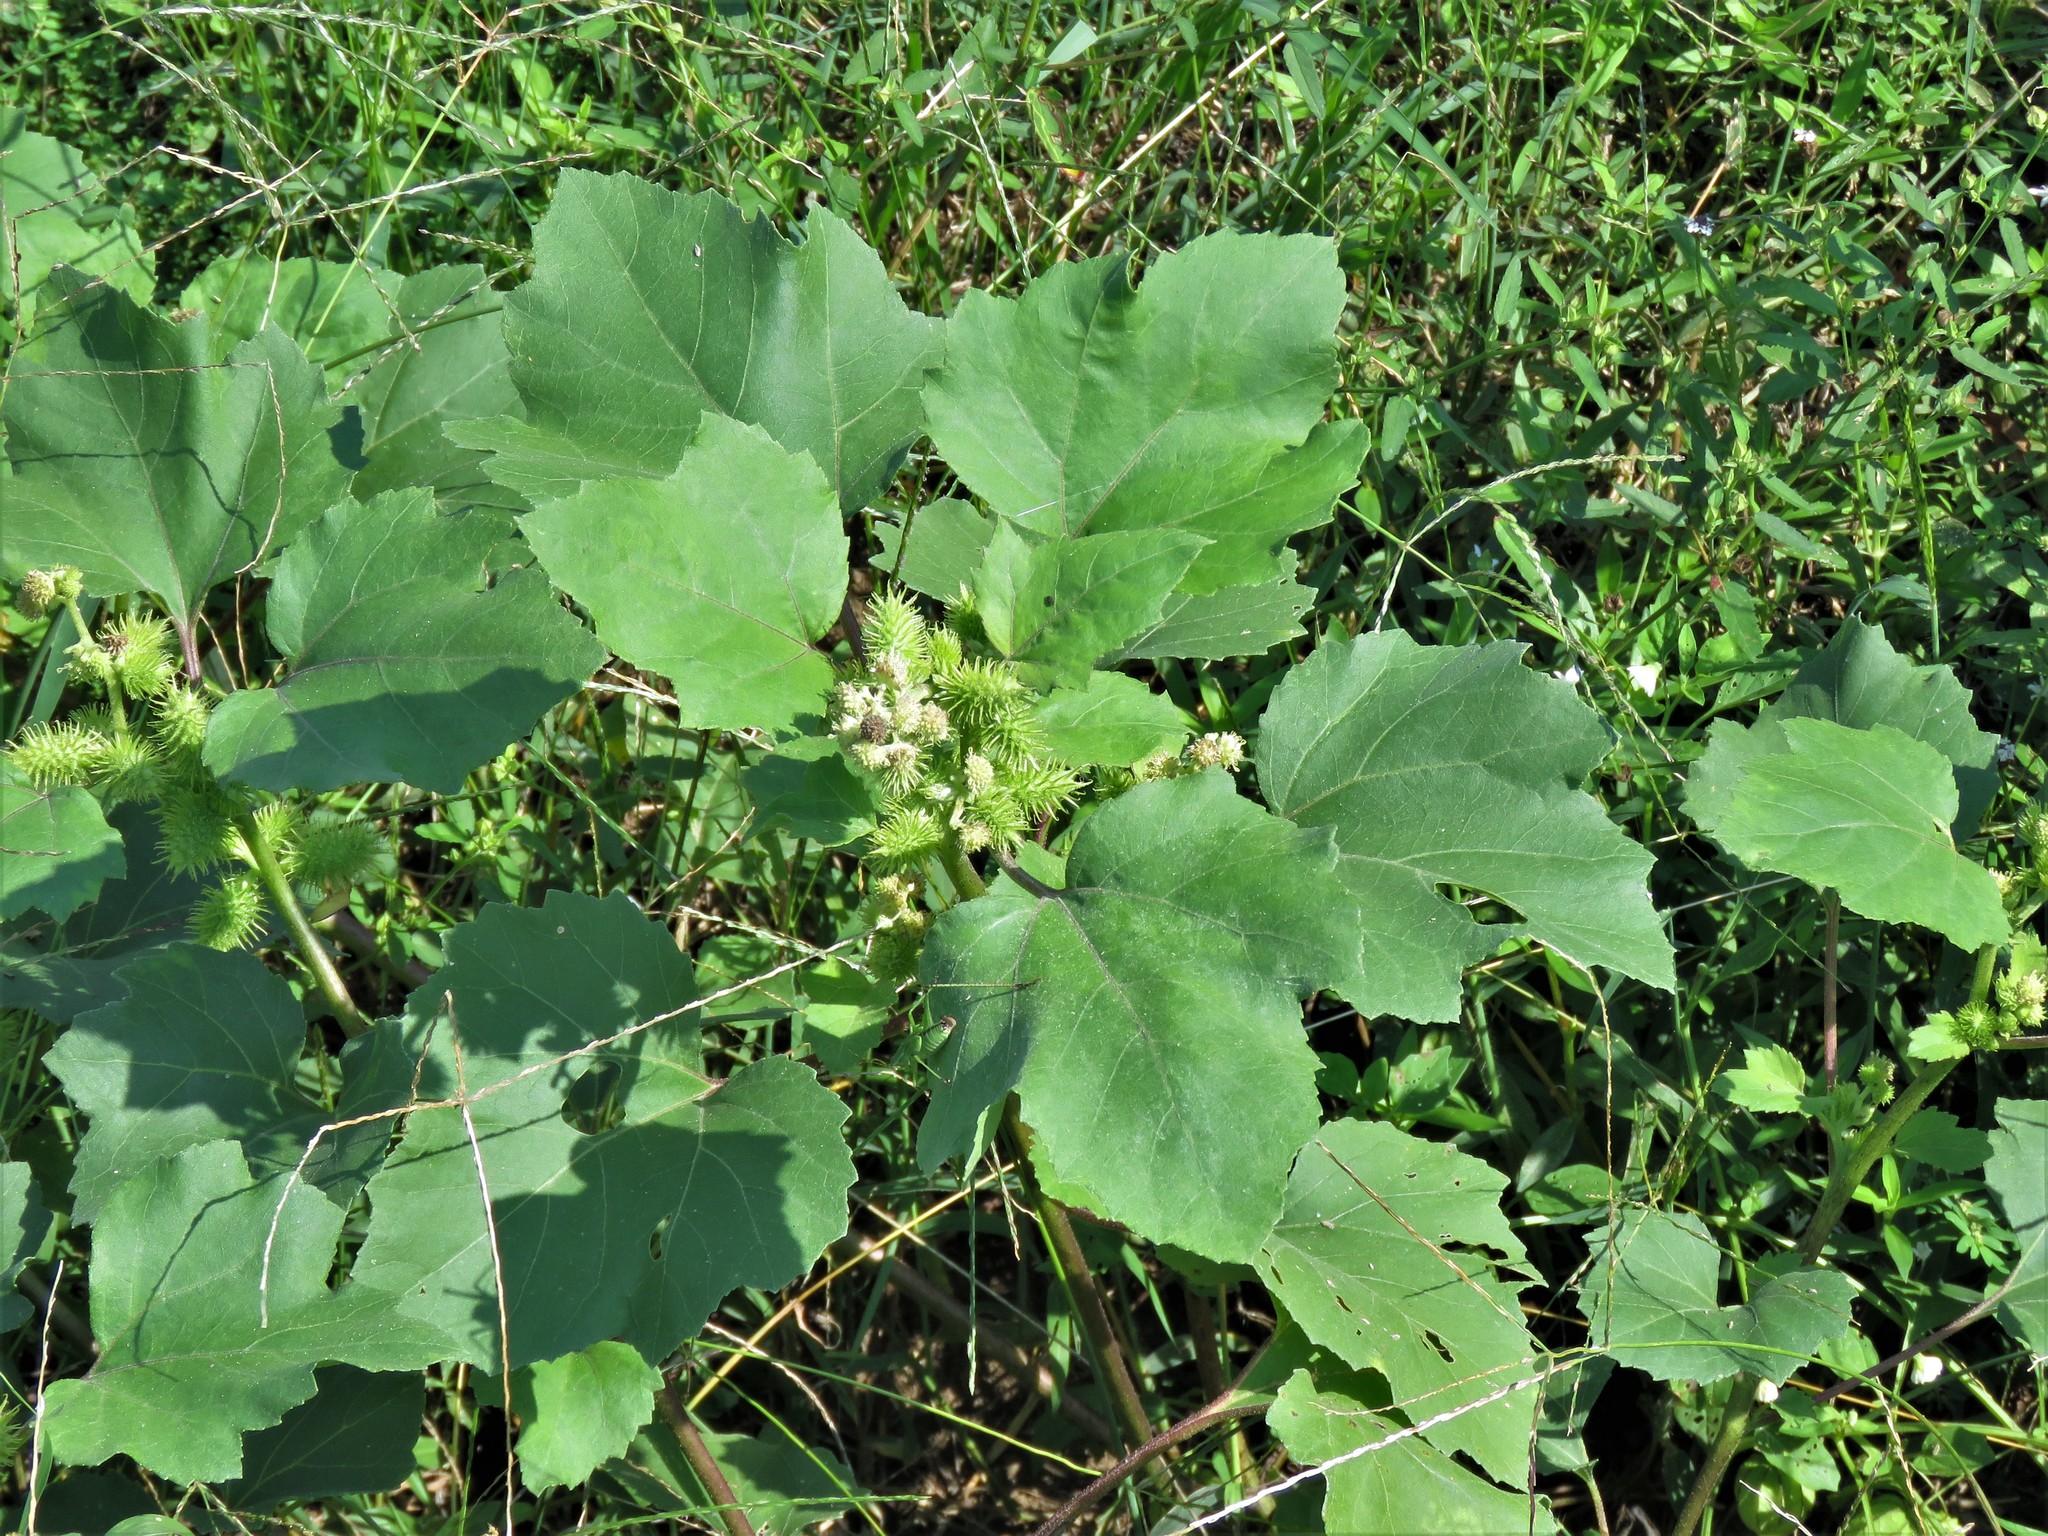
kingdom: Plantae
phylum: Tracheophyta
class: Magnoliopsida
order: Asterales
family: Asteraceae
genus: Xanthium
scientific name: Xanthium strumarium
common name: Rough cocklebur
